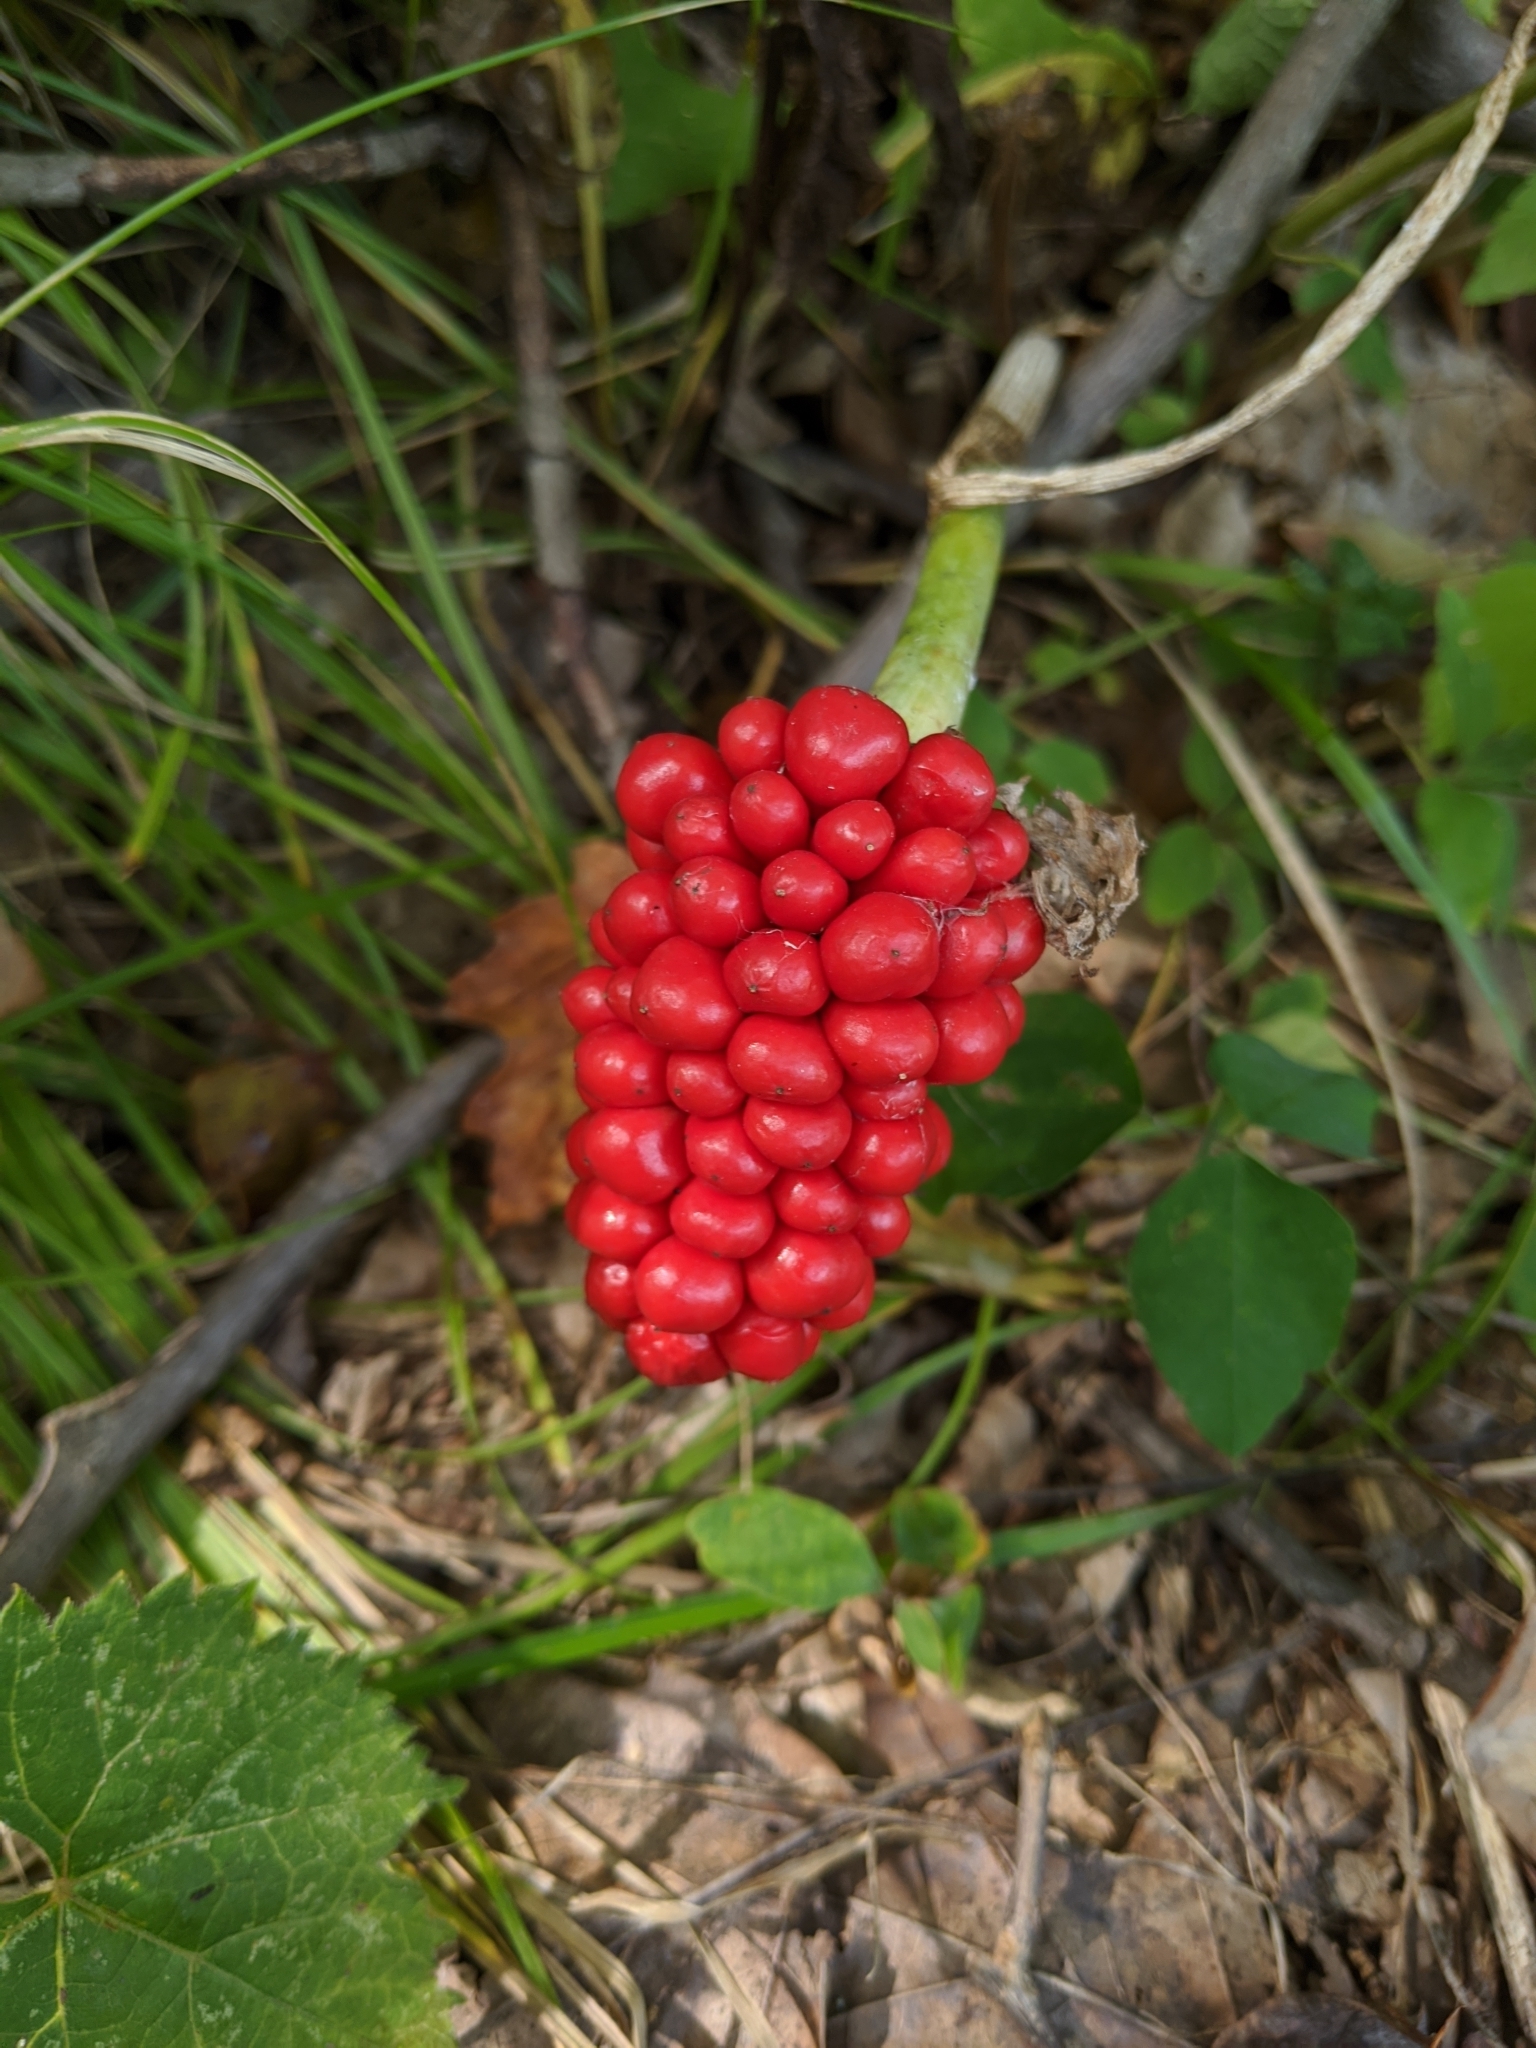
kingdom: Plantae
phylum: Tracheophyta
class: Liliopsida
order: Alismatales
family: Araceae
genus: Arisaema
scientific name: Arisaema triphyllum
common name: Jack-in-the-pulpit
